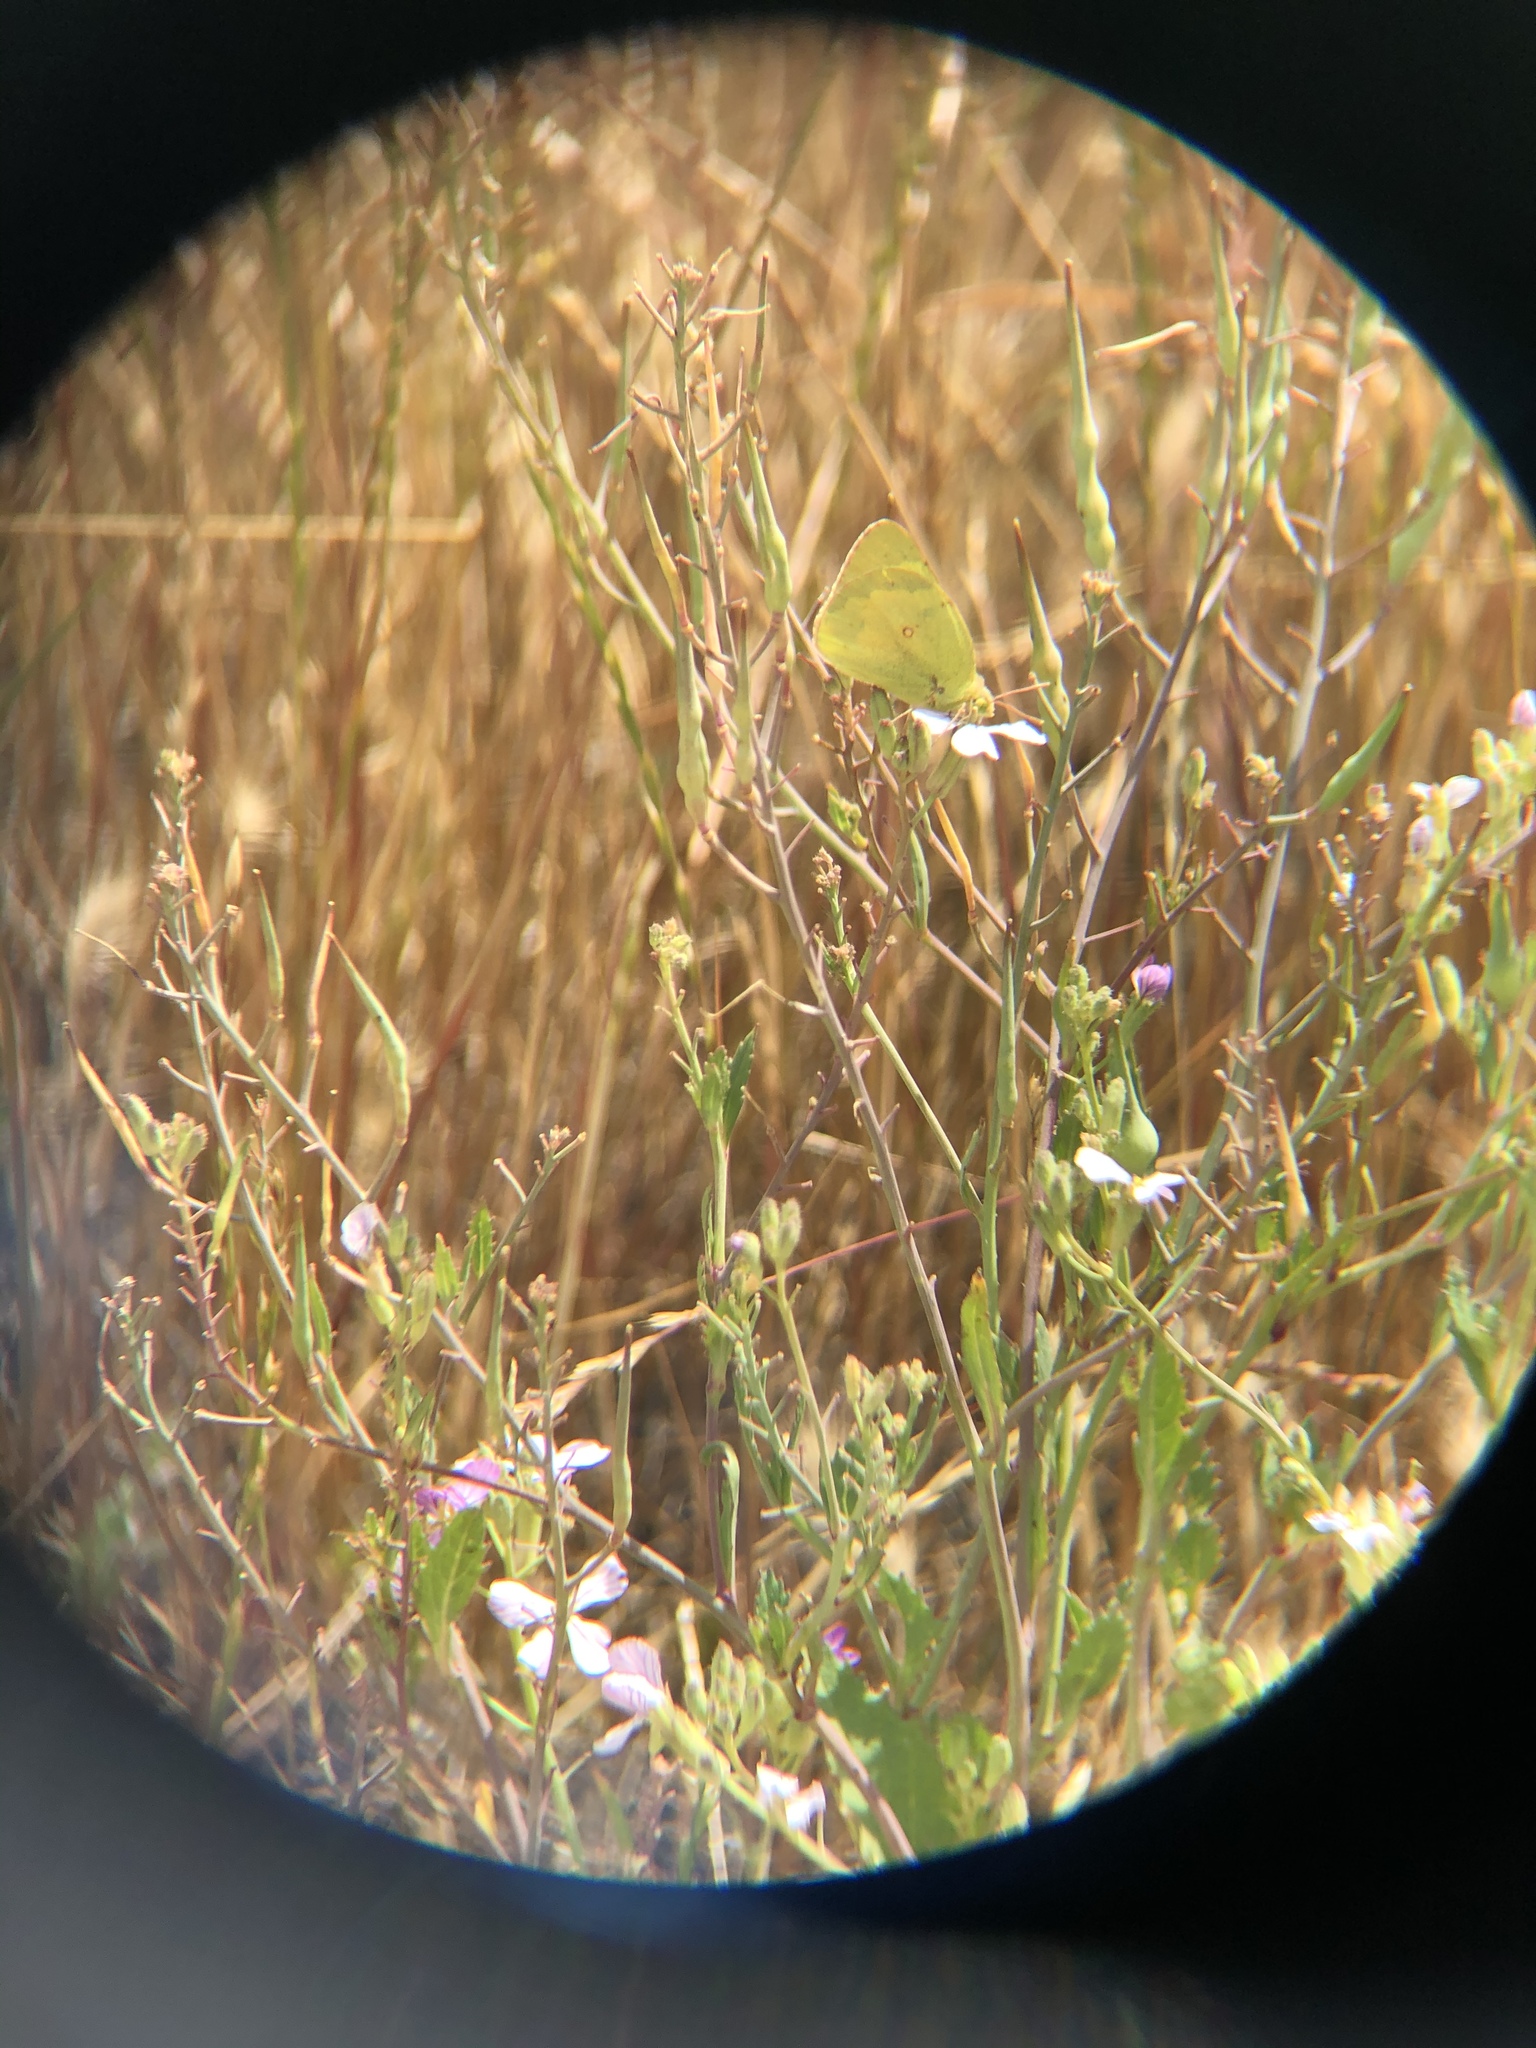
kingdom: Animalia
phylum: Arthropoda
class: Insecta
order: Lepidoptera
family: Pieridae
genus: Colias
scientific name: Colias eurytheme
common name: Alfalfa butterfly
